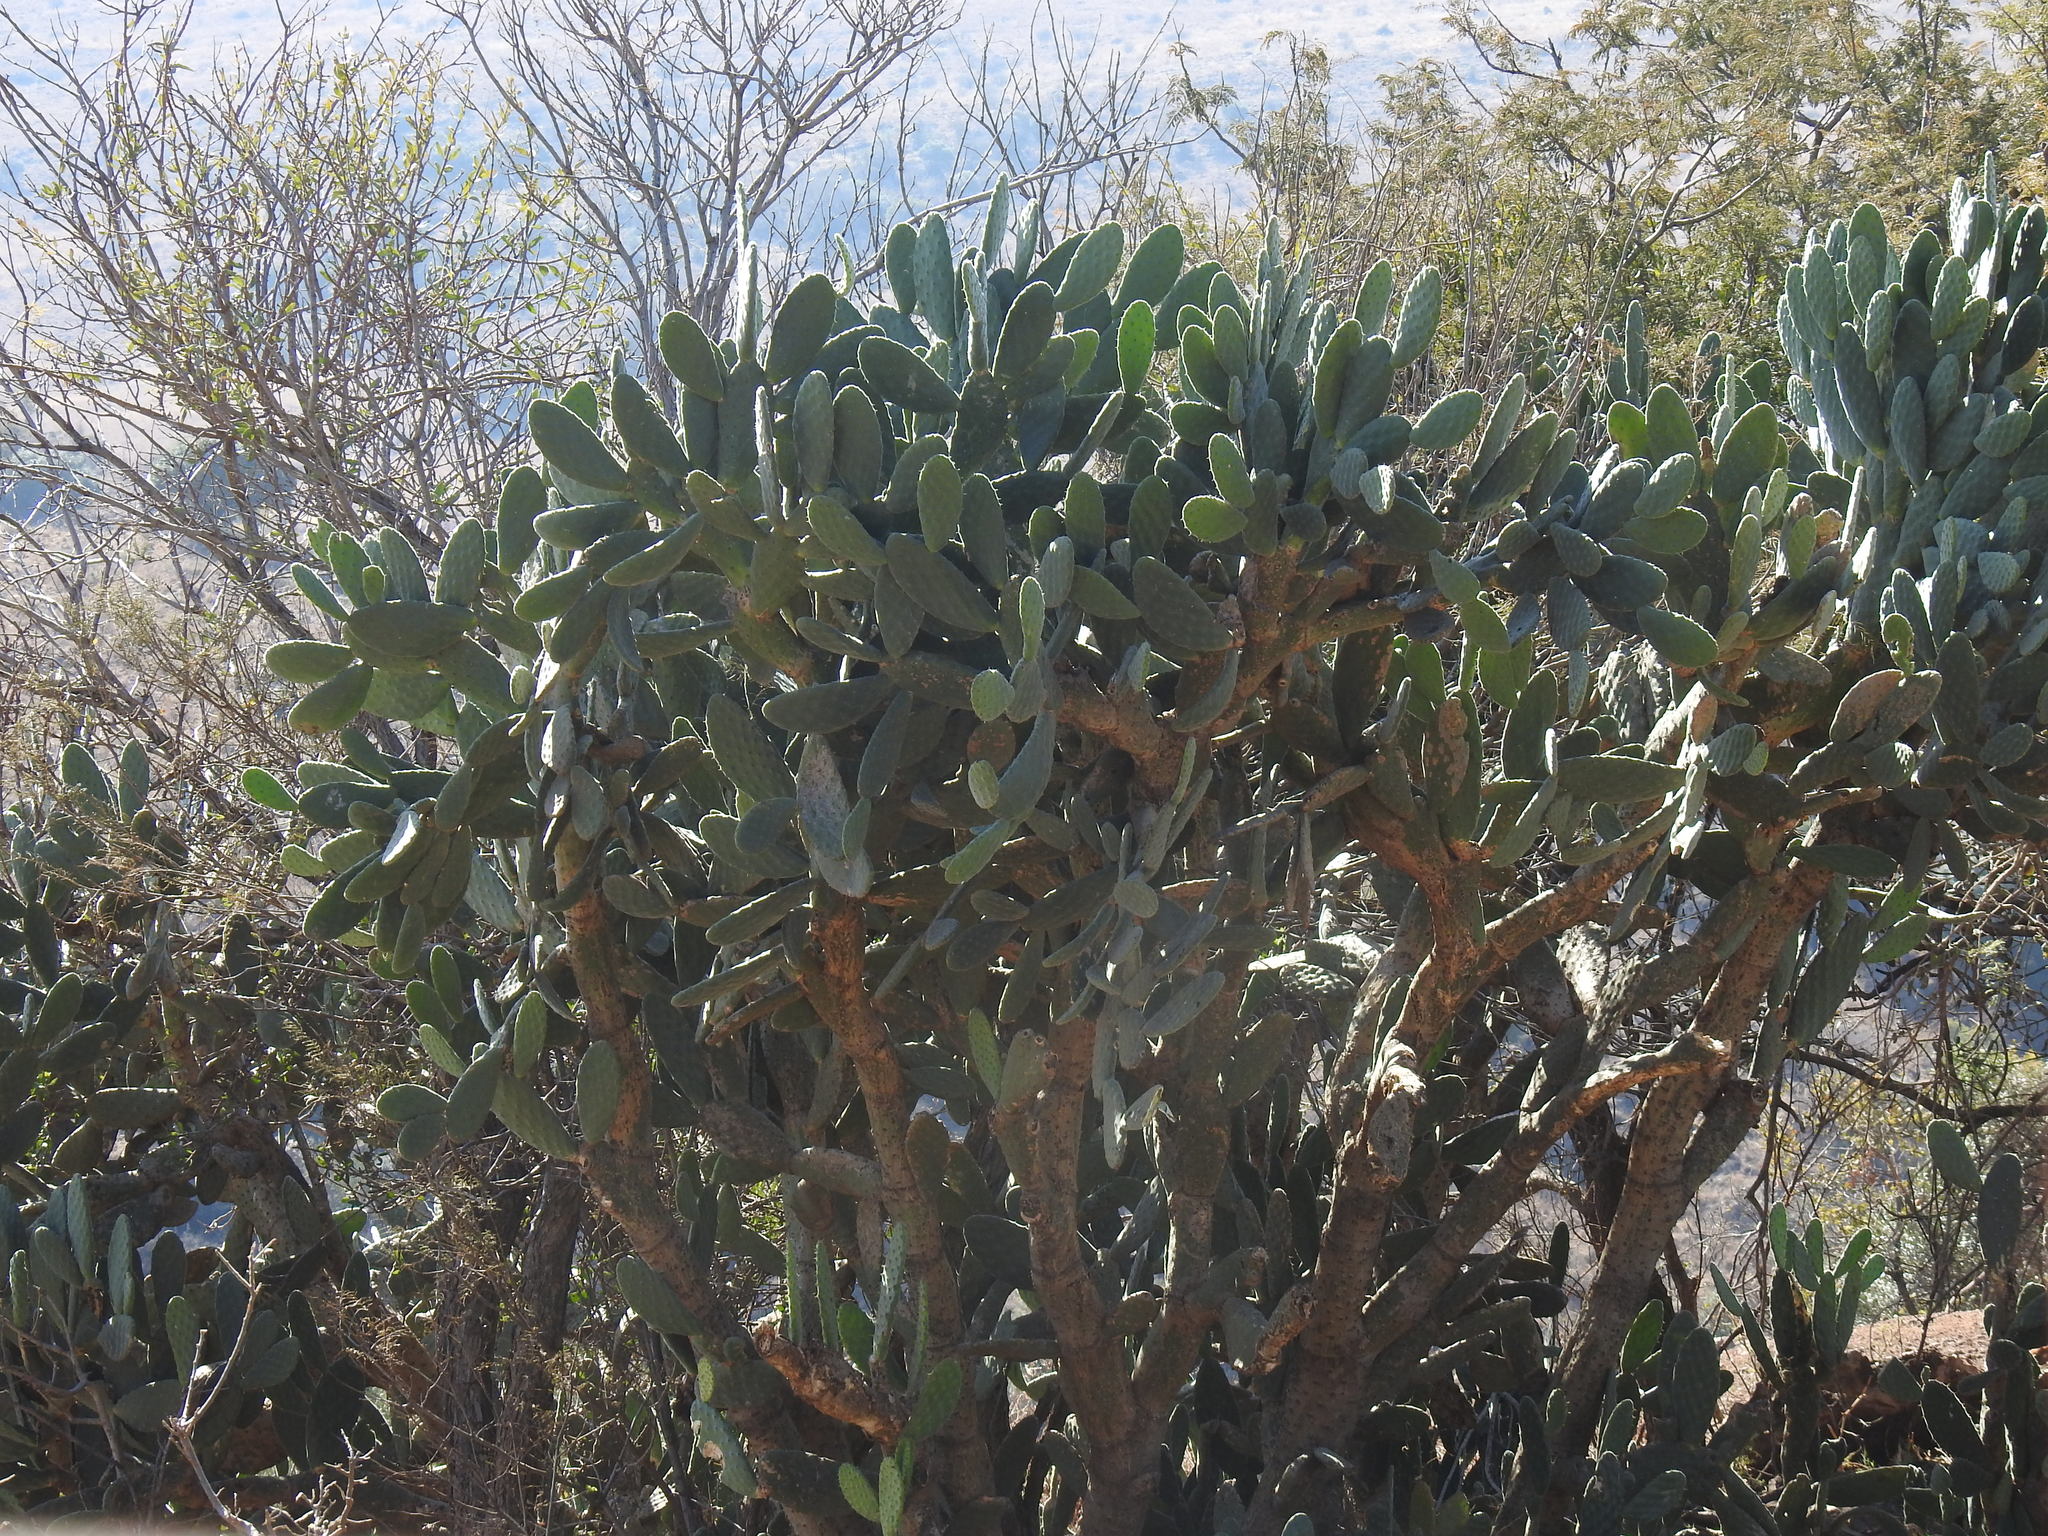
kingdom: Plantae
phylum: Tracheophyta
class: Magnoliopsida
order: Caryophyllales
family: Cactaceae
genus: Opuntia
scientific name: Opuntia tomentosa
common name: Woollyjoint pricklypear
